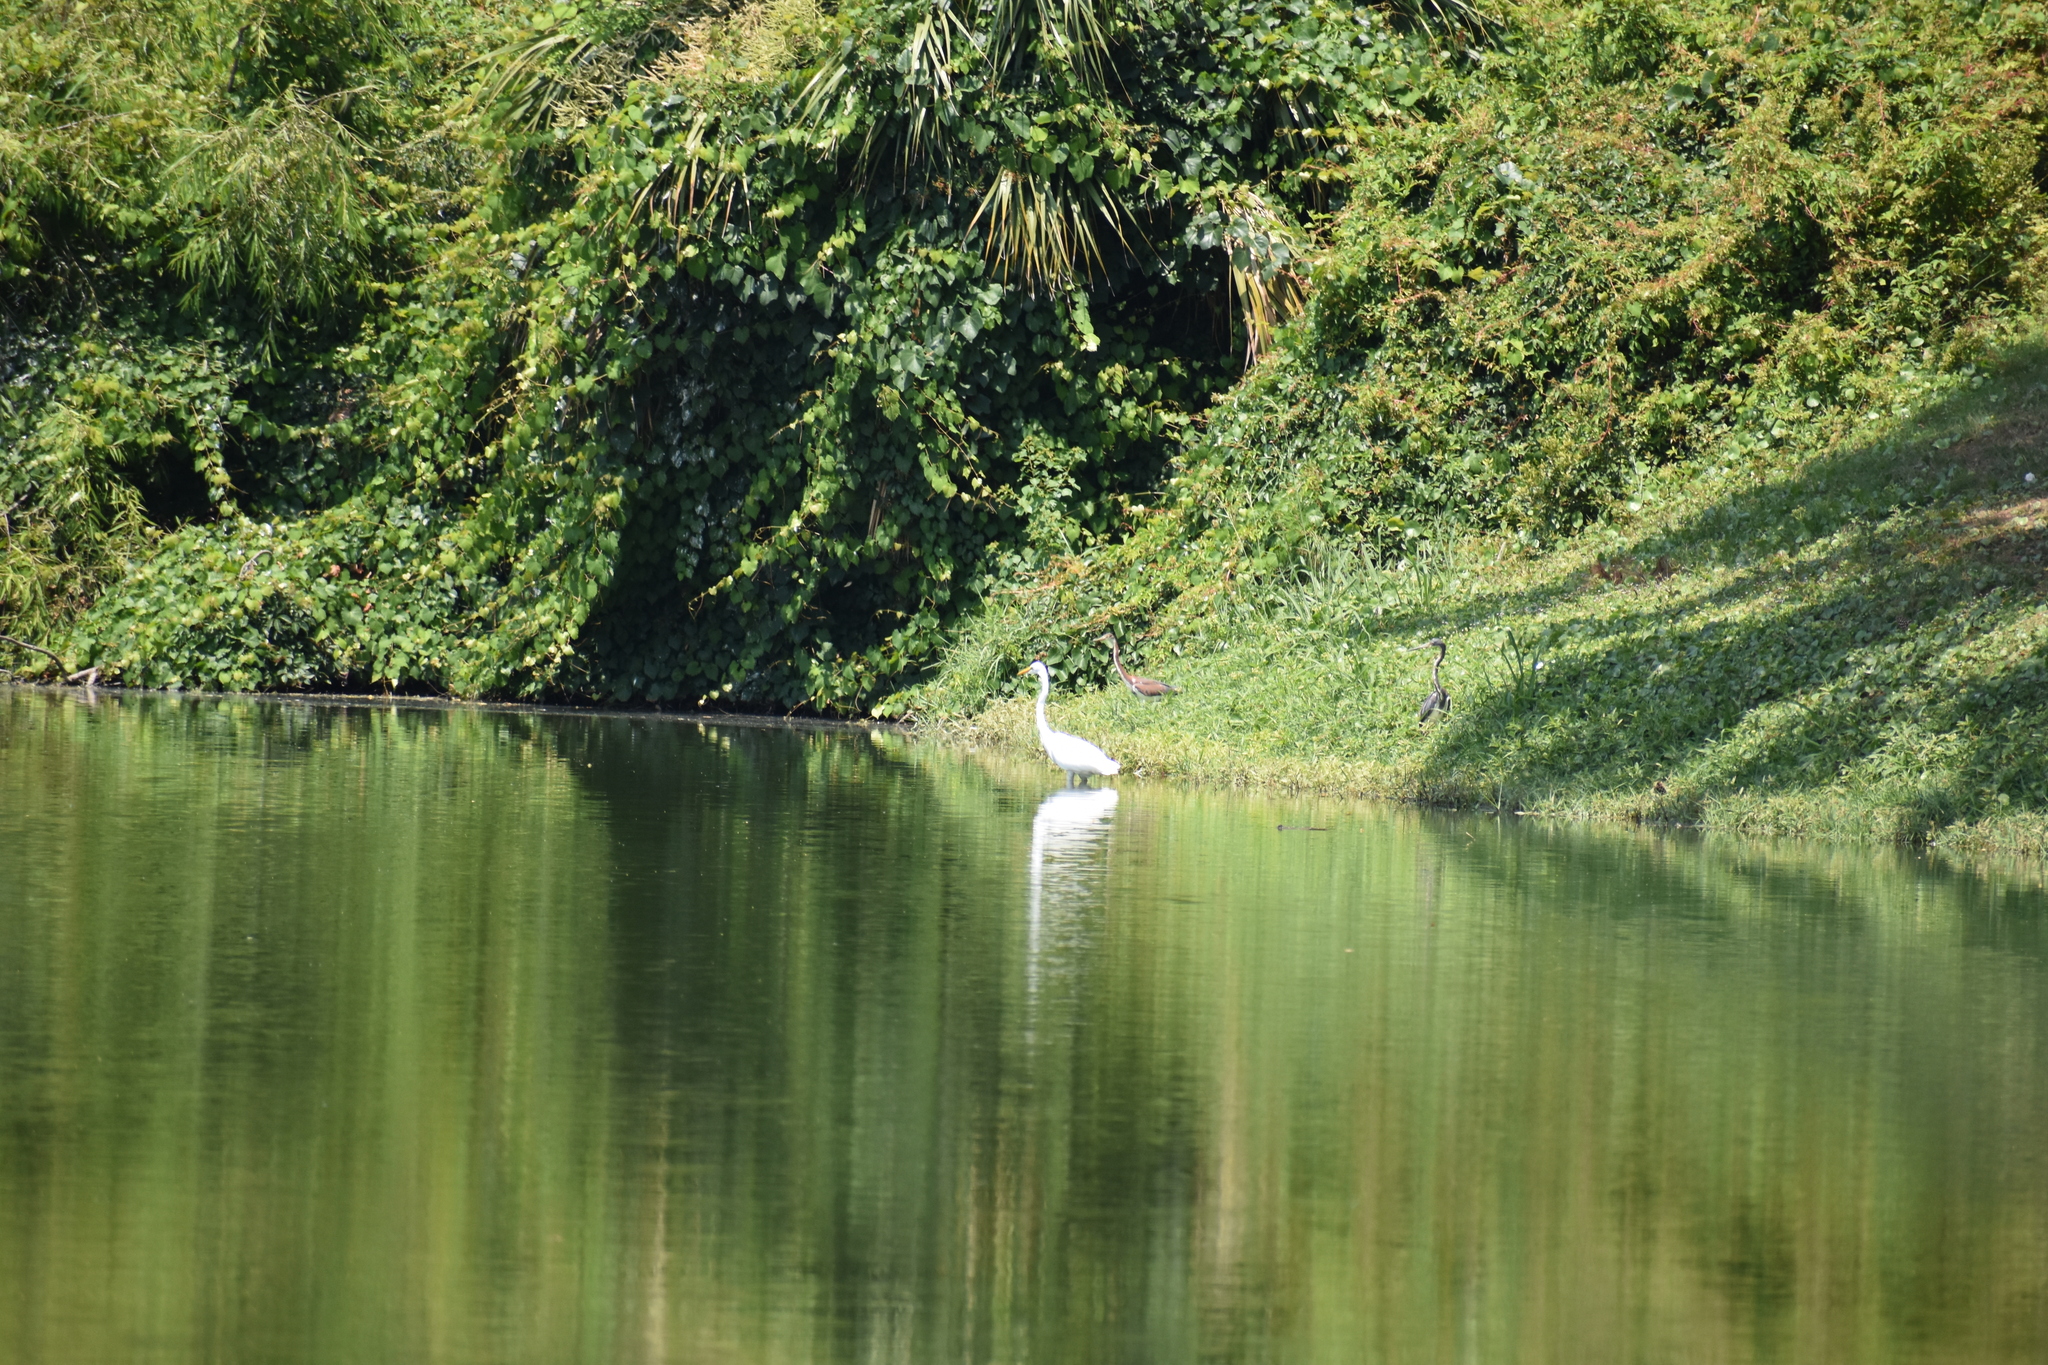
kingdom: Animalia
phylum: Chordata
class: Aves
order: Pelecaniformes
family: Ardeidae
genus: Ardea
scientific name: Ardea alba
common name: Great egret
